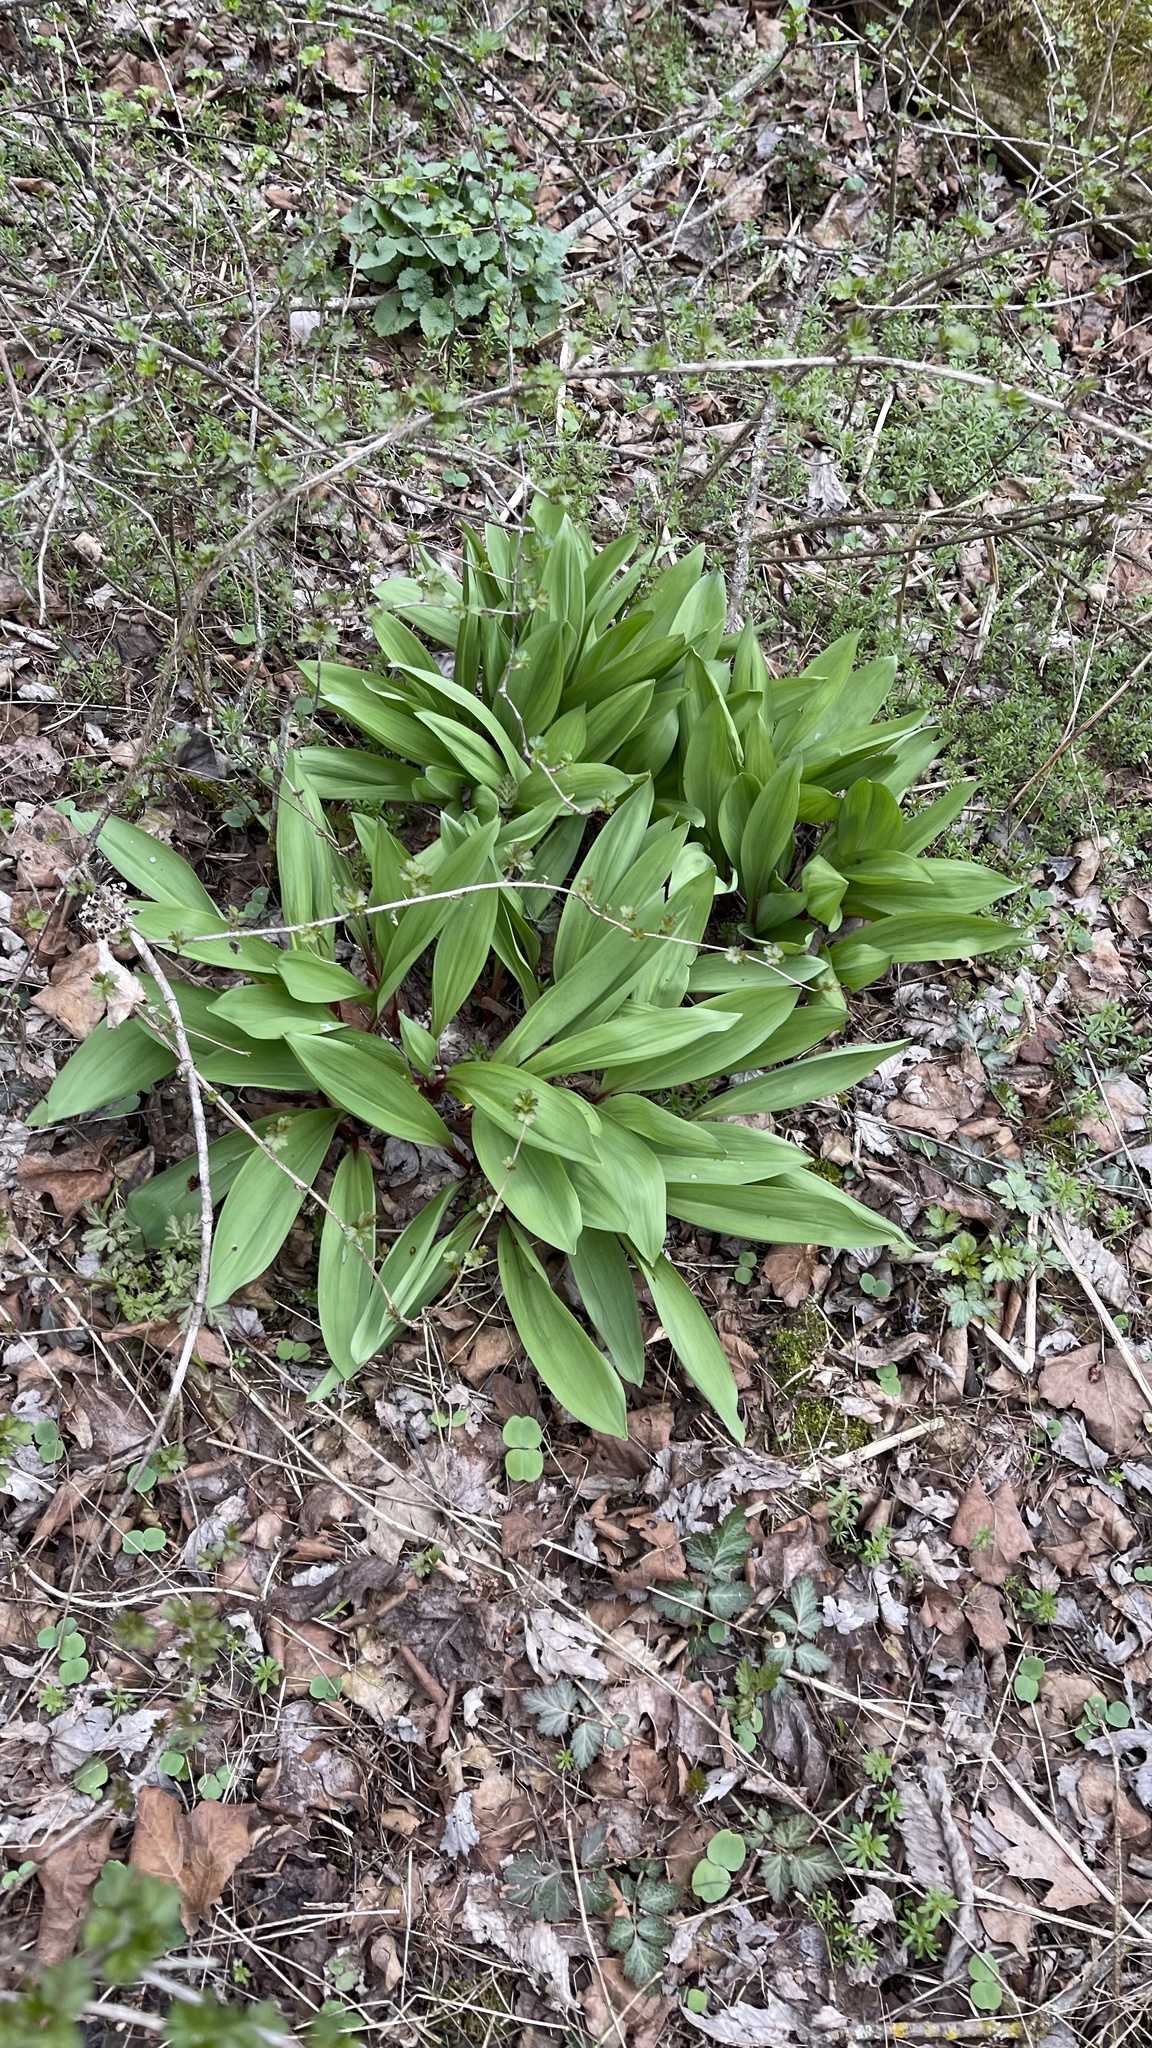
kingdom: Plantae
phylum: Tracheophyta
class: Liliopsida
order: Asparagales
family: Amaryllidaceae
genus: Allium
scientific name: Allium tricoccum
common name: Ramp
